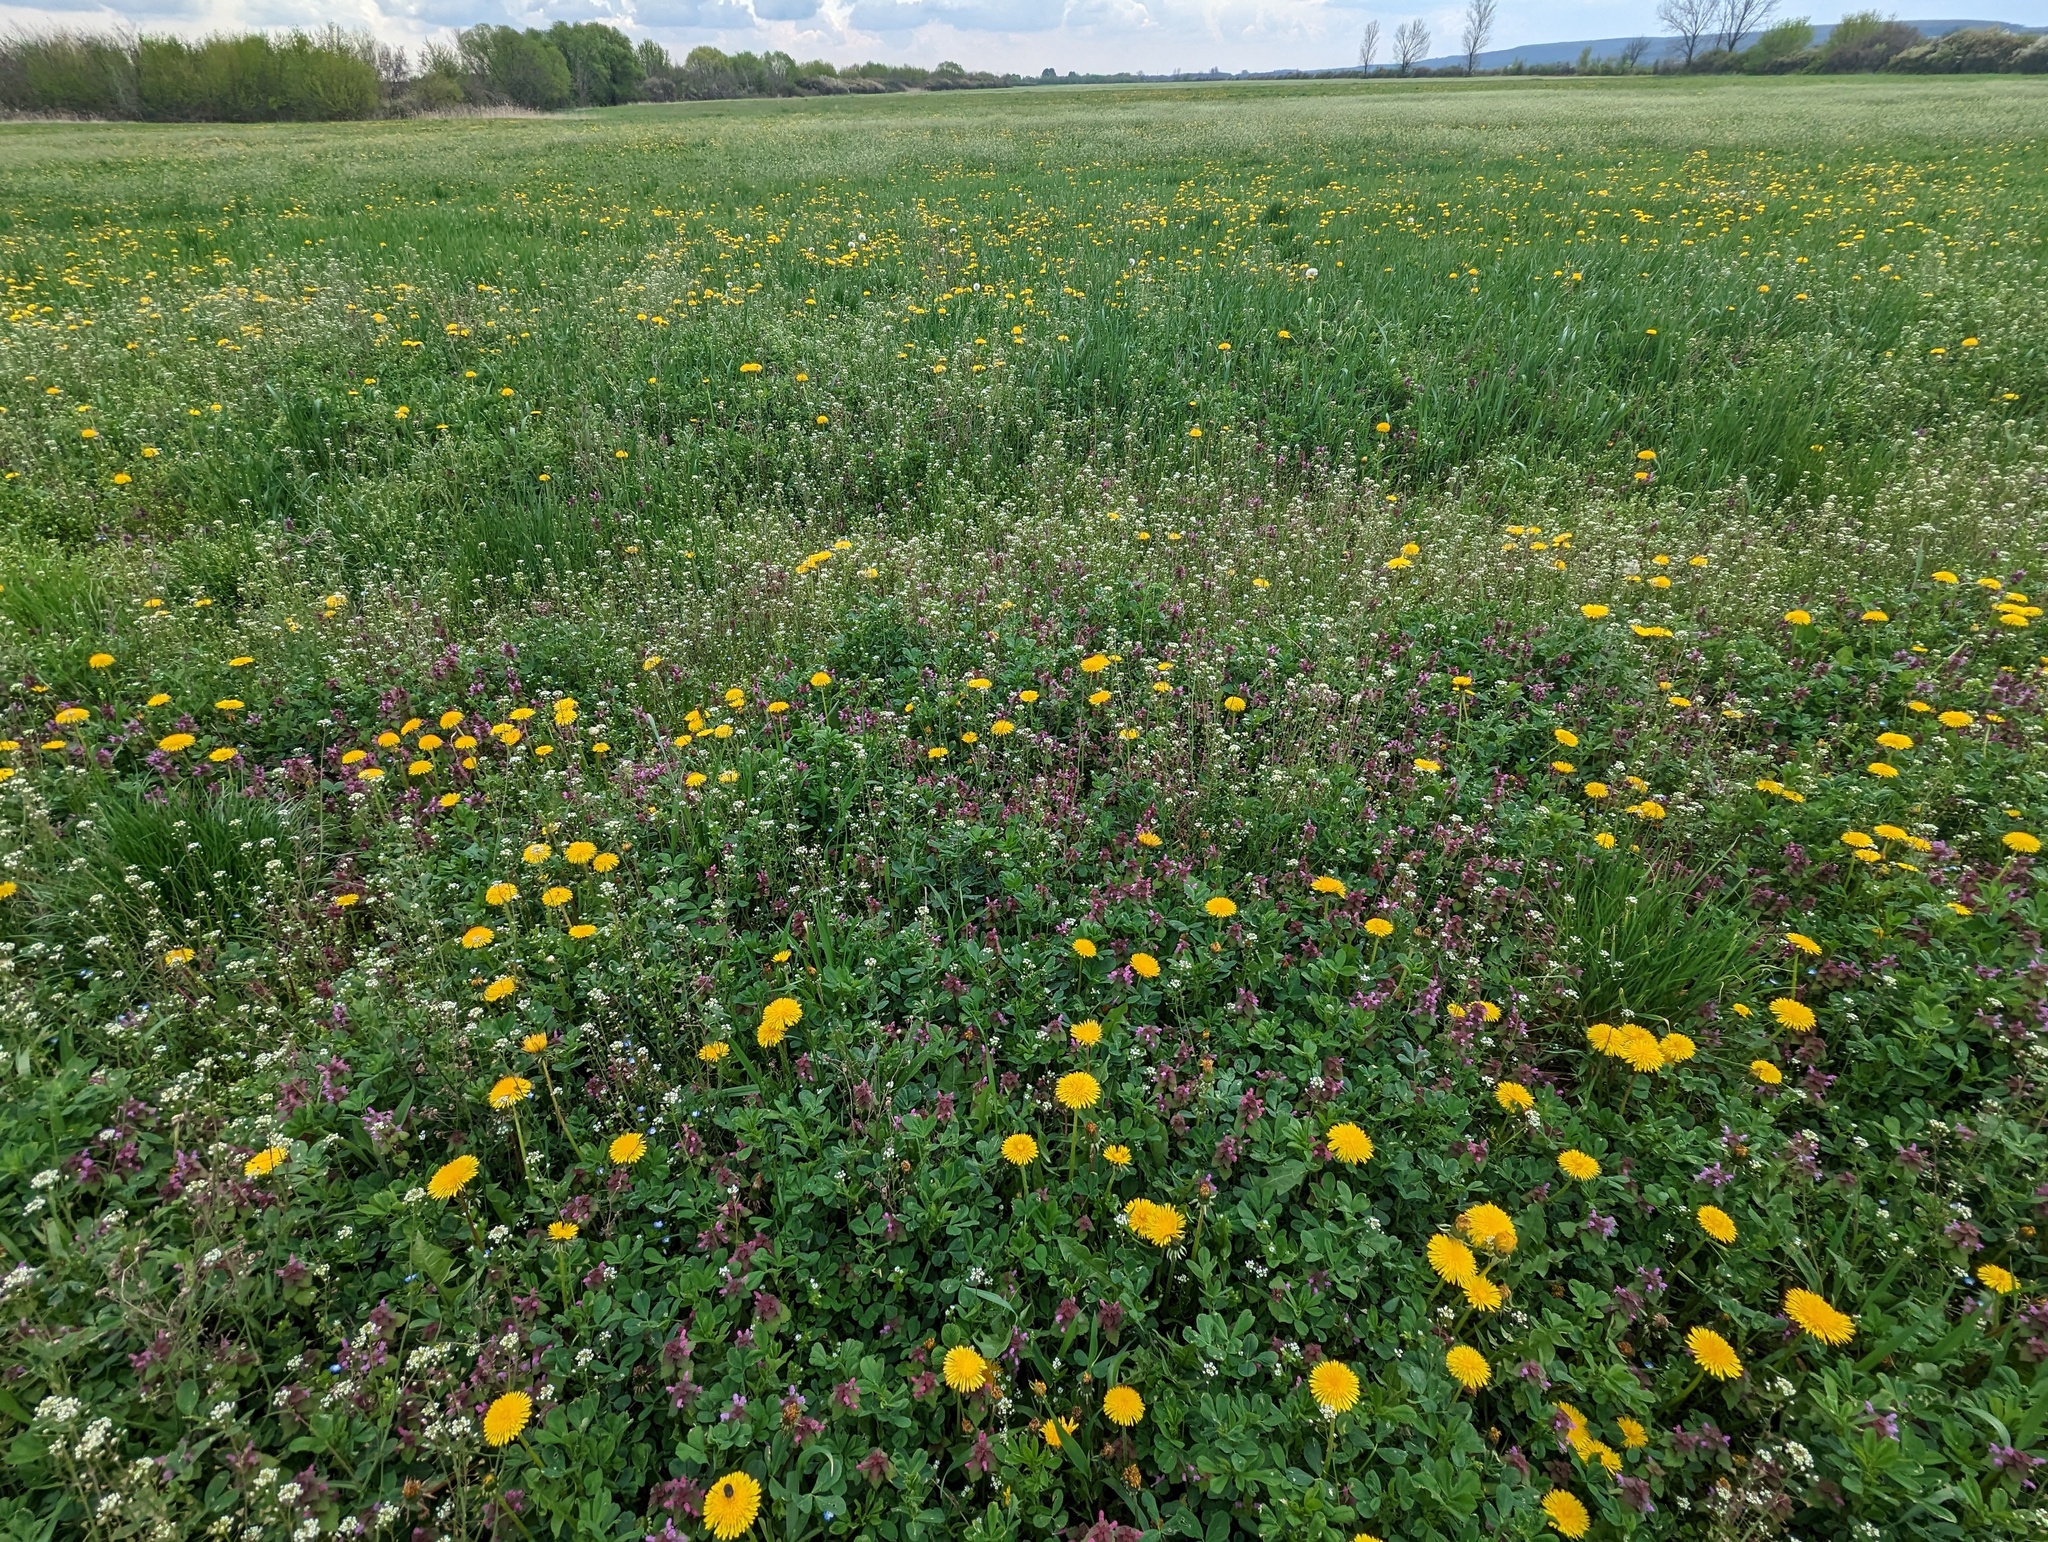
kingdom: Plantae
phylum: Tracheophyta
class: Magnoliopsida
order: Asterales
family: Asteraceae
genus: Taraxacum
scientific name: Taraxacum officinale
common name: Common dandelion
